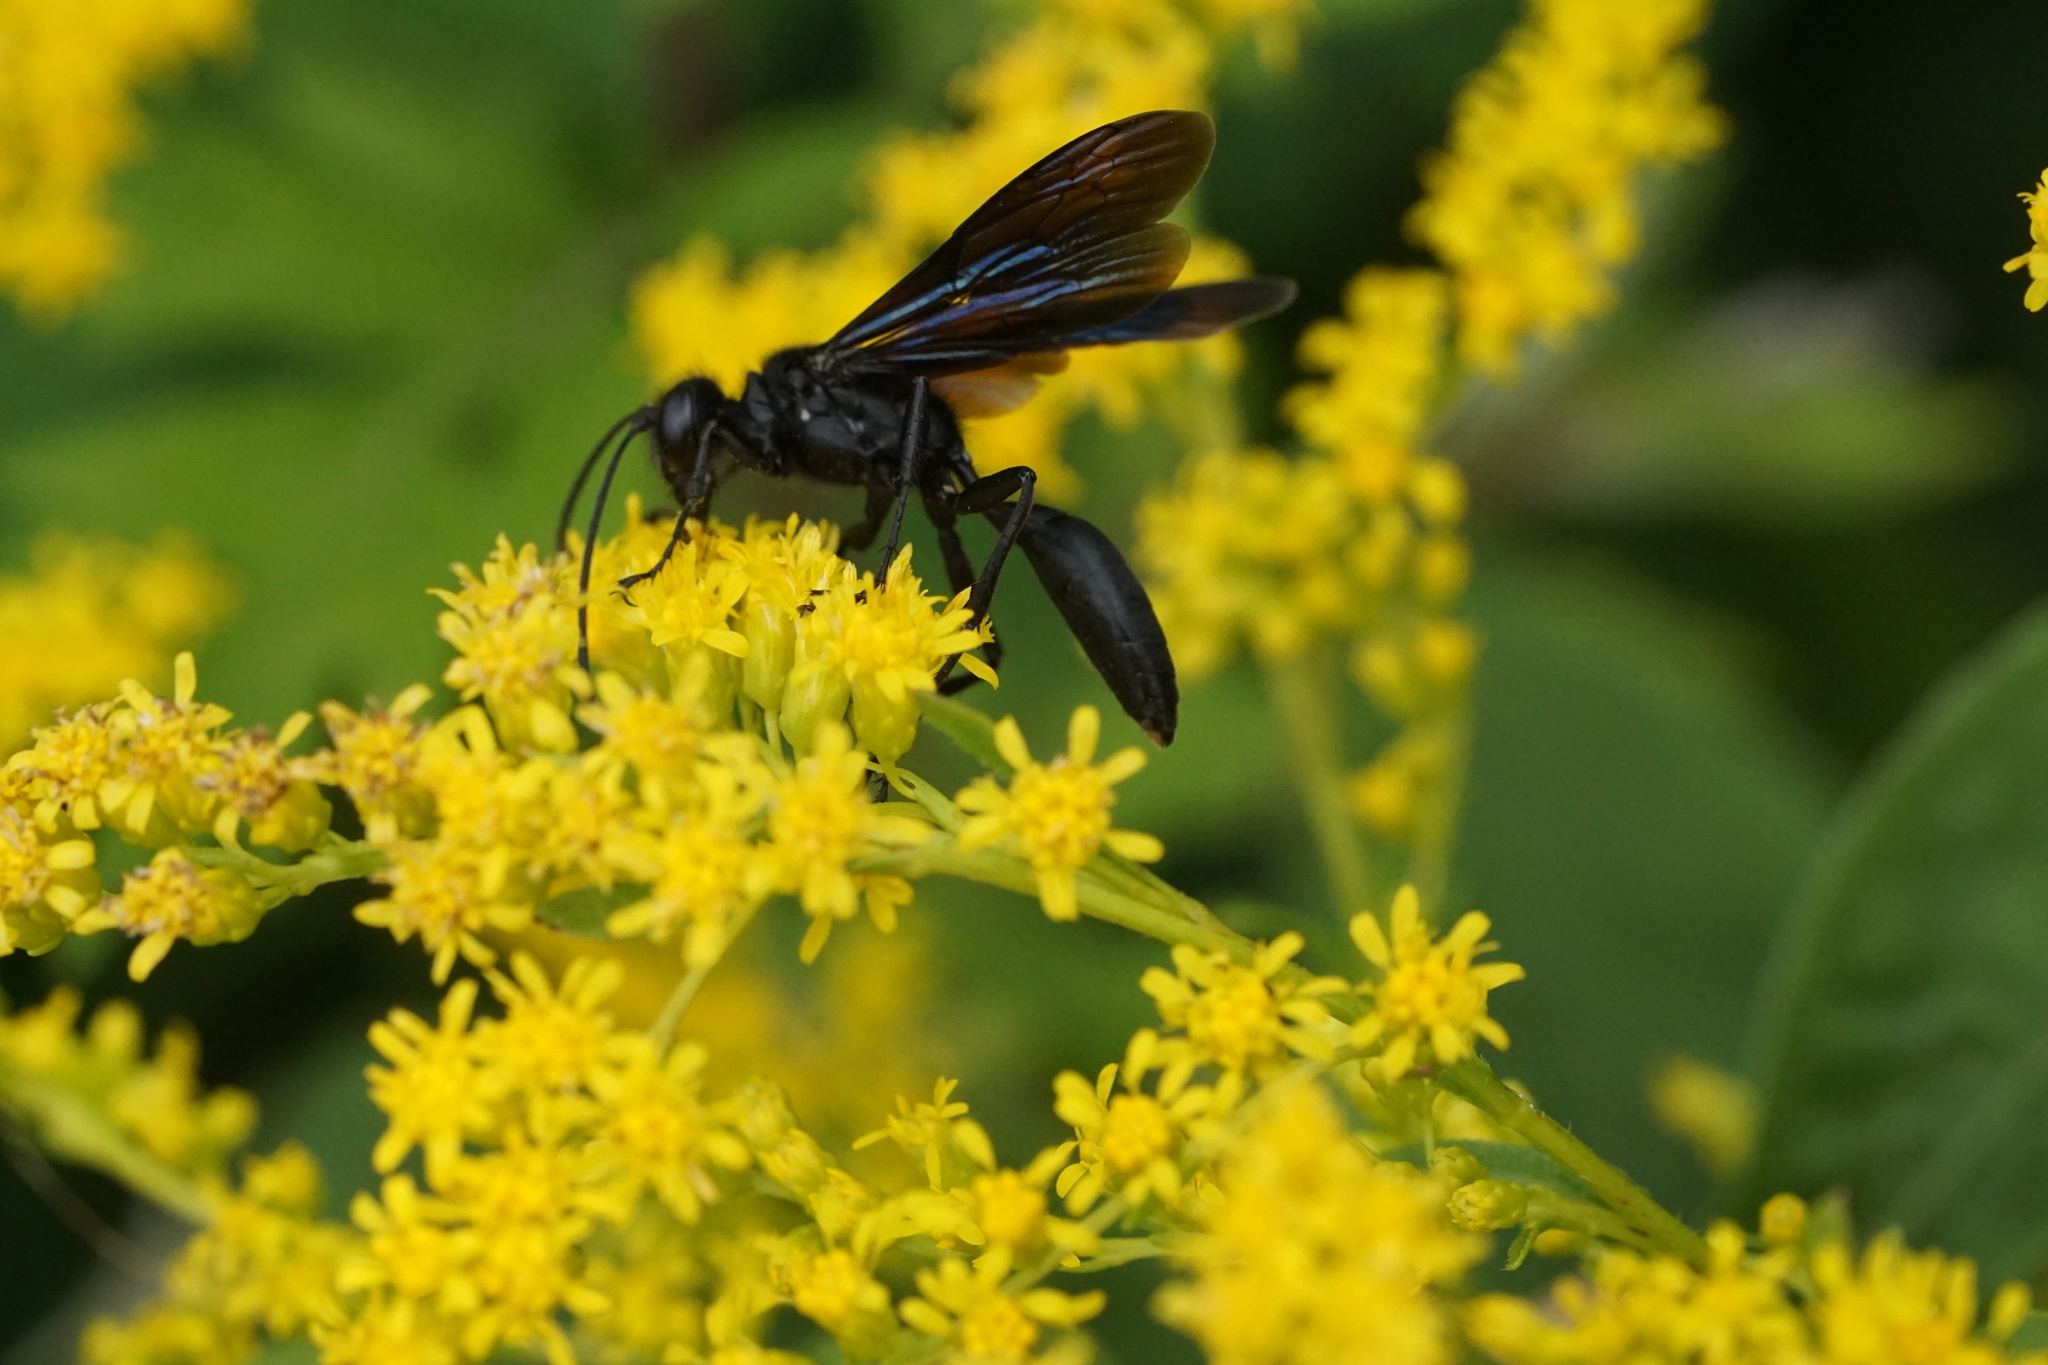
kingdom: Animalia
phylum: Arthropoda
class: Insecta
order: Hymenoptera
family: Sphecidae
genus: Sphex
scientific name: Sphex pensylvanicus
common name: Great black digger wasp
